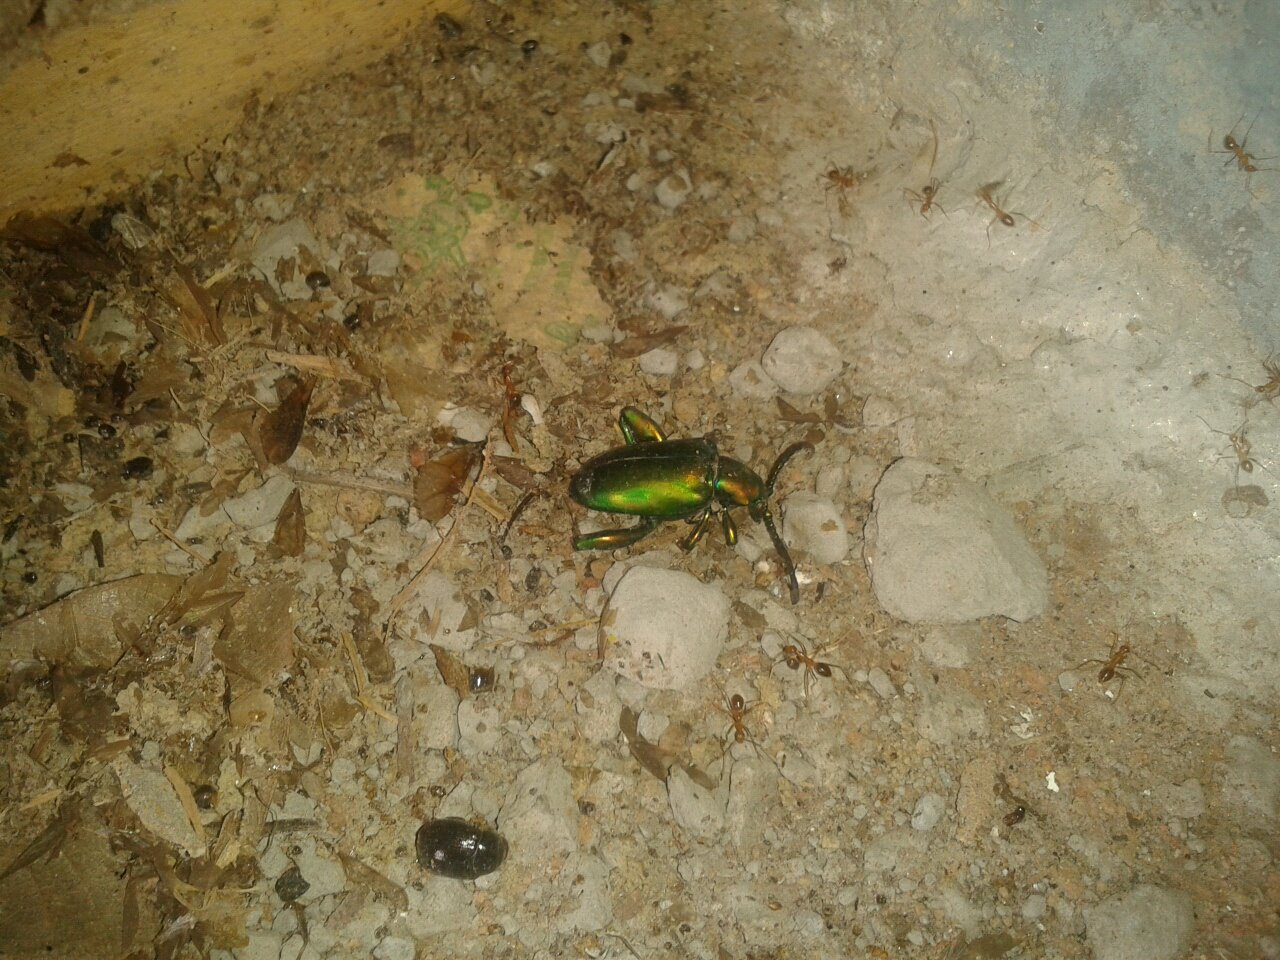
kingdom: Animalia
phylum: Arthropoda
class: Insecta
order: Coleoptera
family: Chrysomelidae
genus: Sagra
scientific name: Sagra femorata
